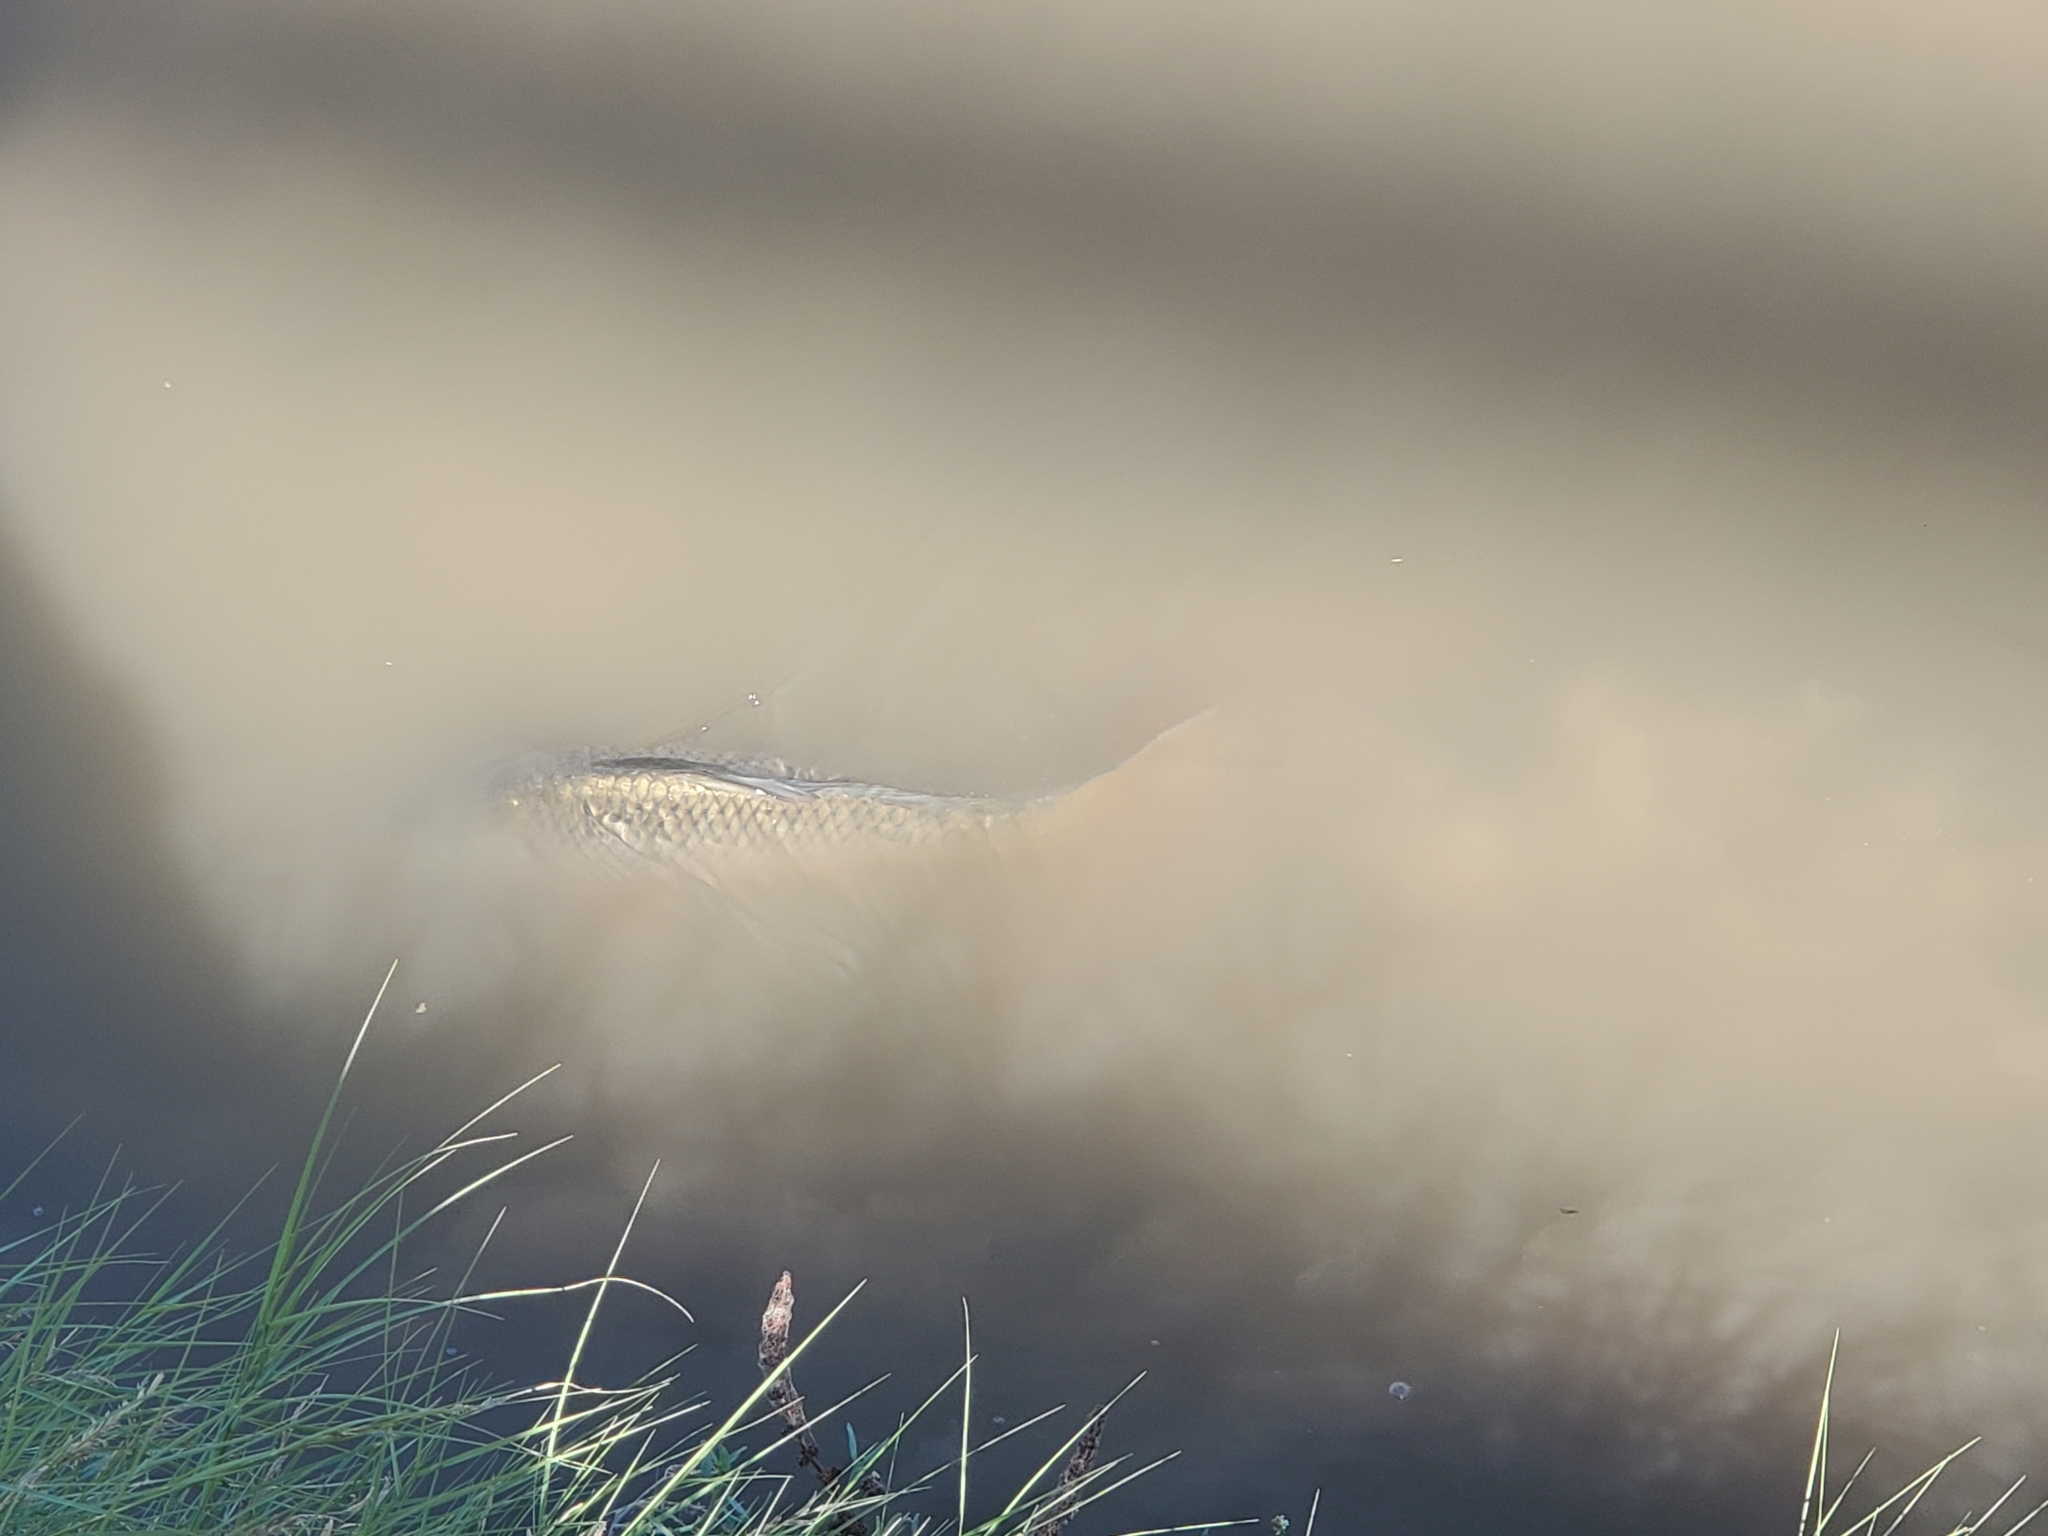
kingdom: Animalia
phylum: Chordata
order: Cypriniformes
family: Cyprinidae
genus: Cyprinus
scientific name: Cyprinus carpio
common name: Common carp
